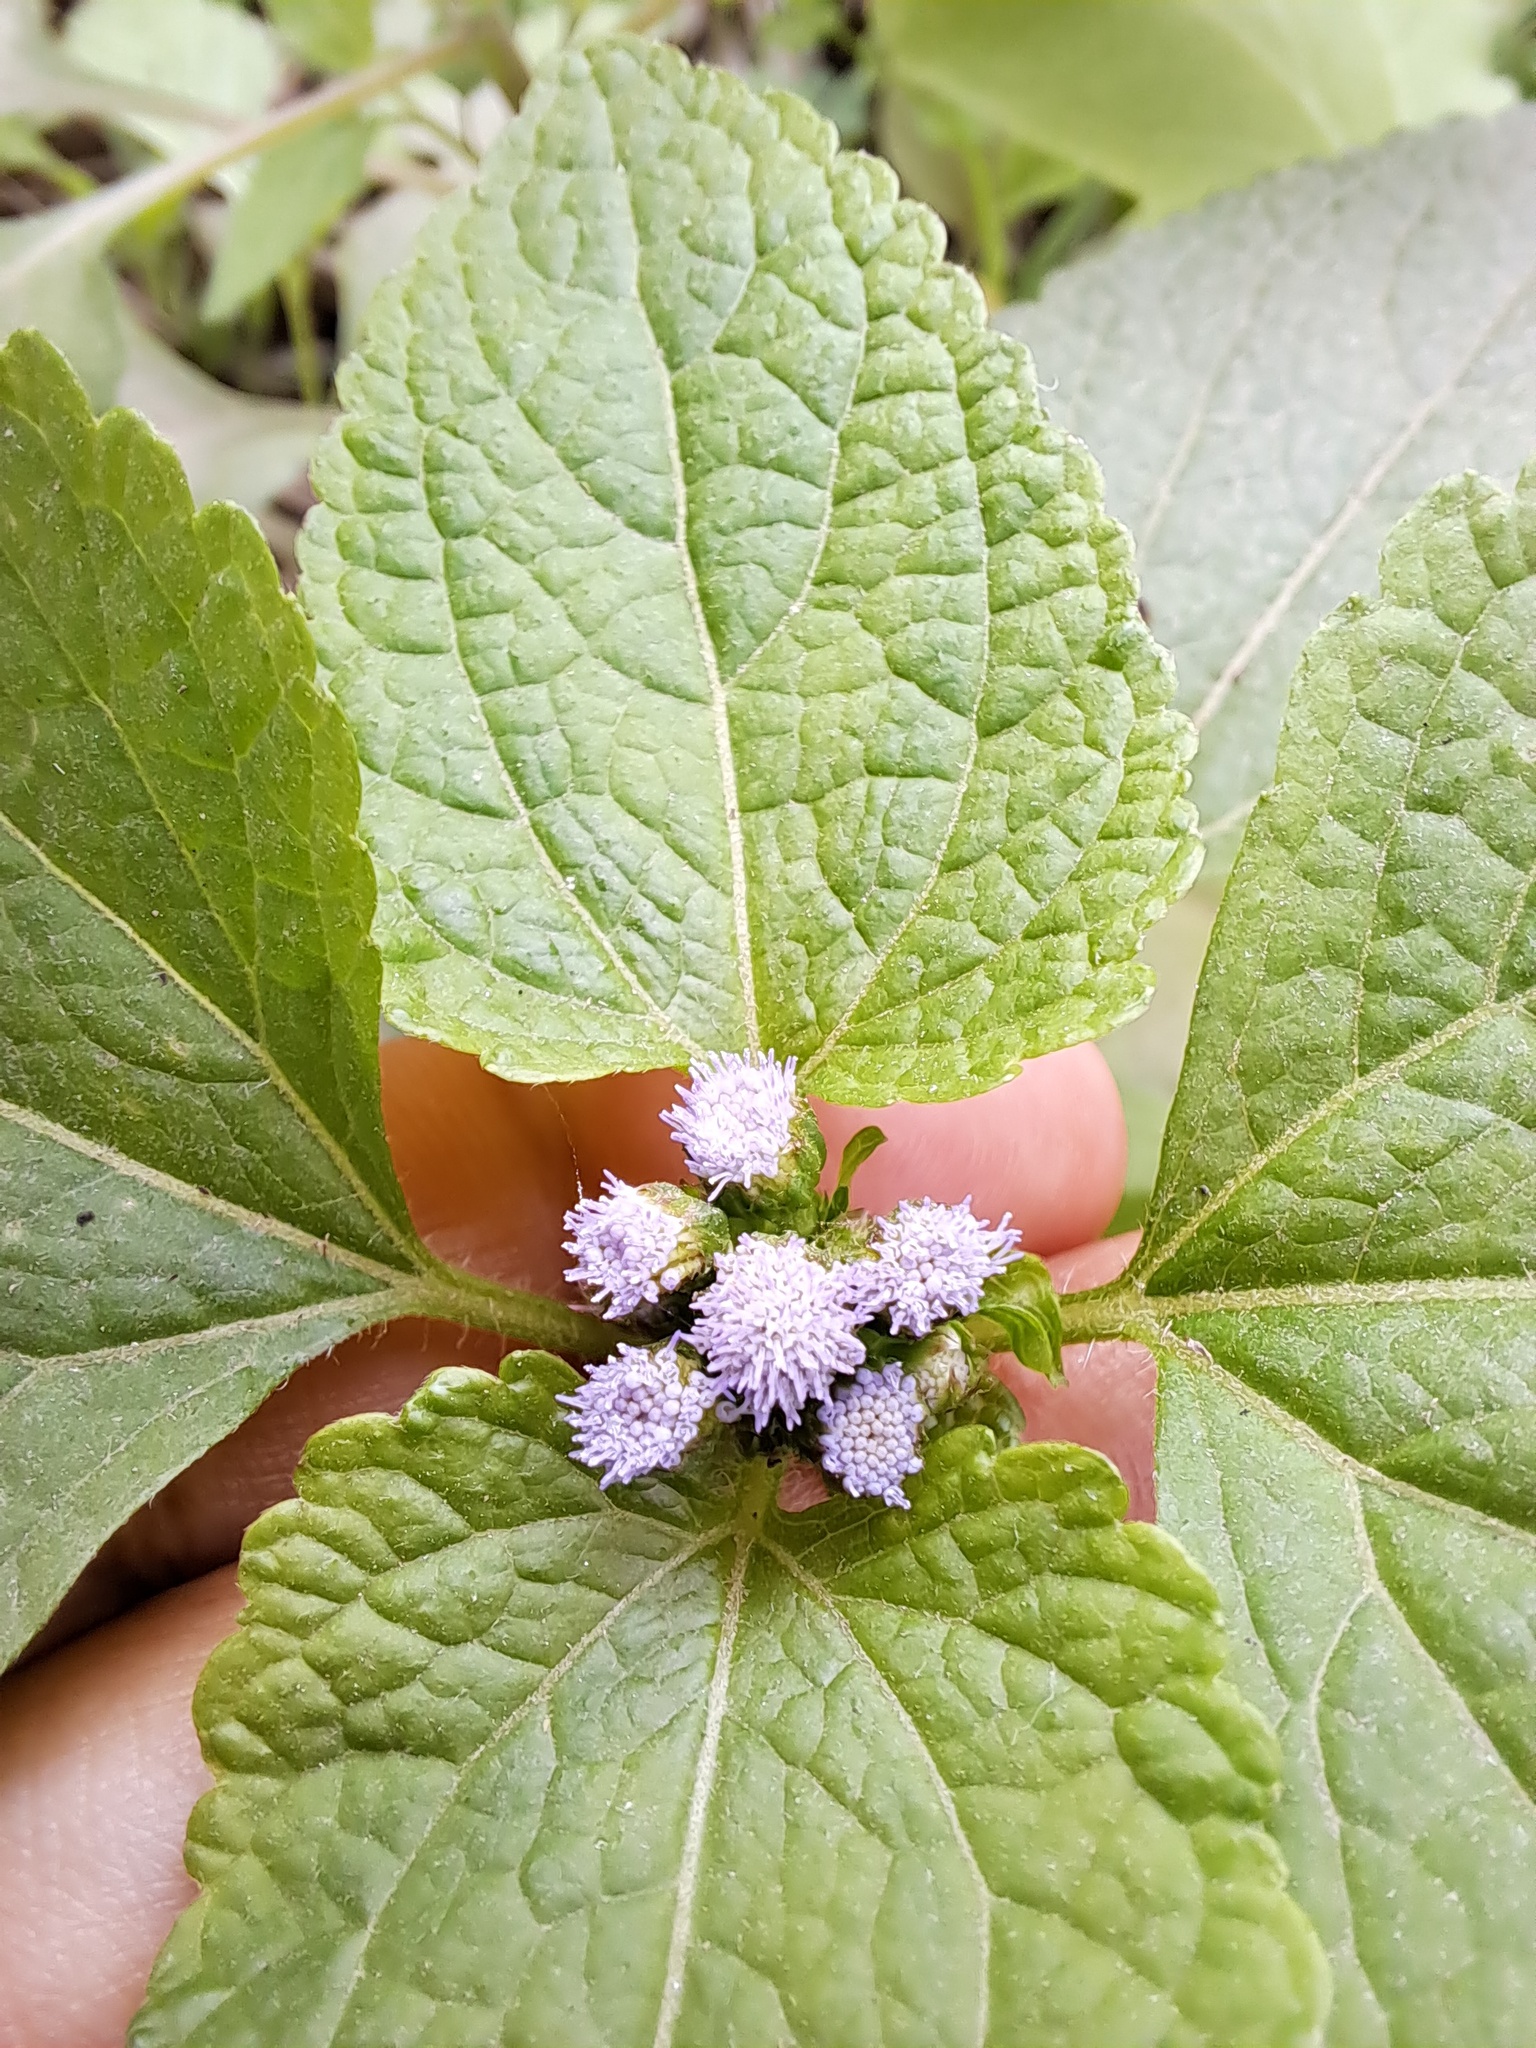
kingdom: Plantae
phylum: Tracheophyta
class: Magnoliopsida
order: Asterales
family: Asteraceae
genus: Ageratum
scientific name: Ageratum conyzoides
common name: Tropical whiteweed
